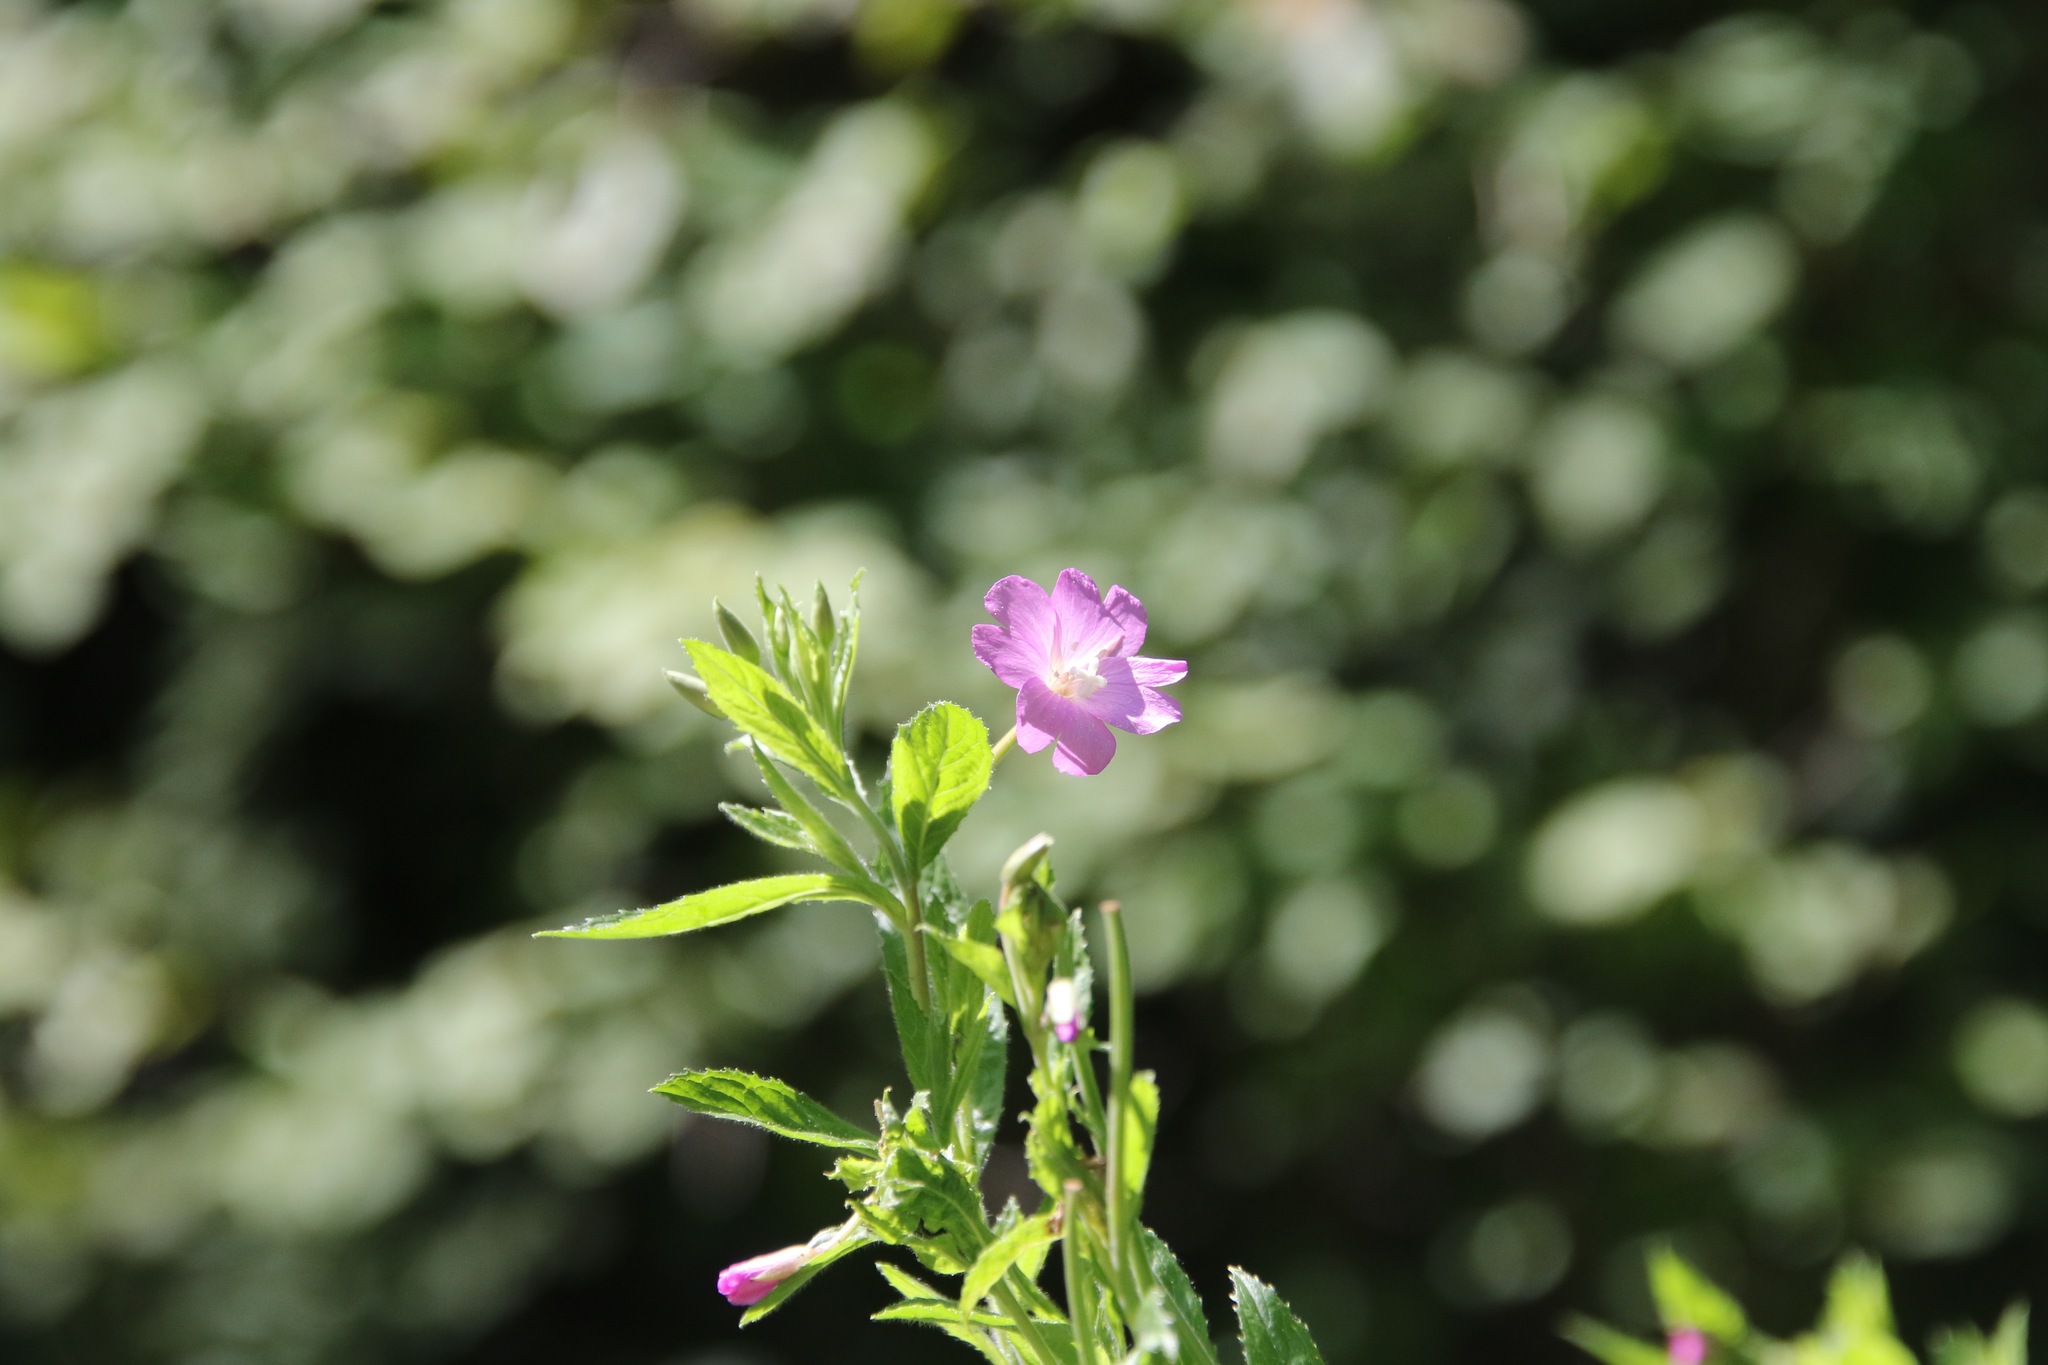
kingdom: Plantae
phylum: Tracheophyta
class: Magnoliopsida
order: Myrtales
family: Onagraceae
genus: Epilobium
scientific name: Epilobium hirsutum
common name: Great willowherb
